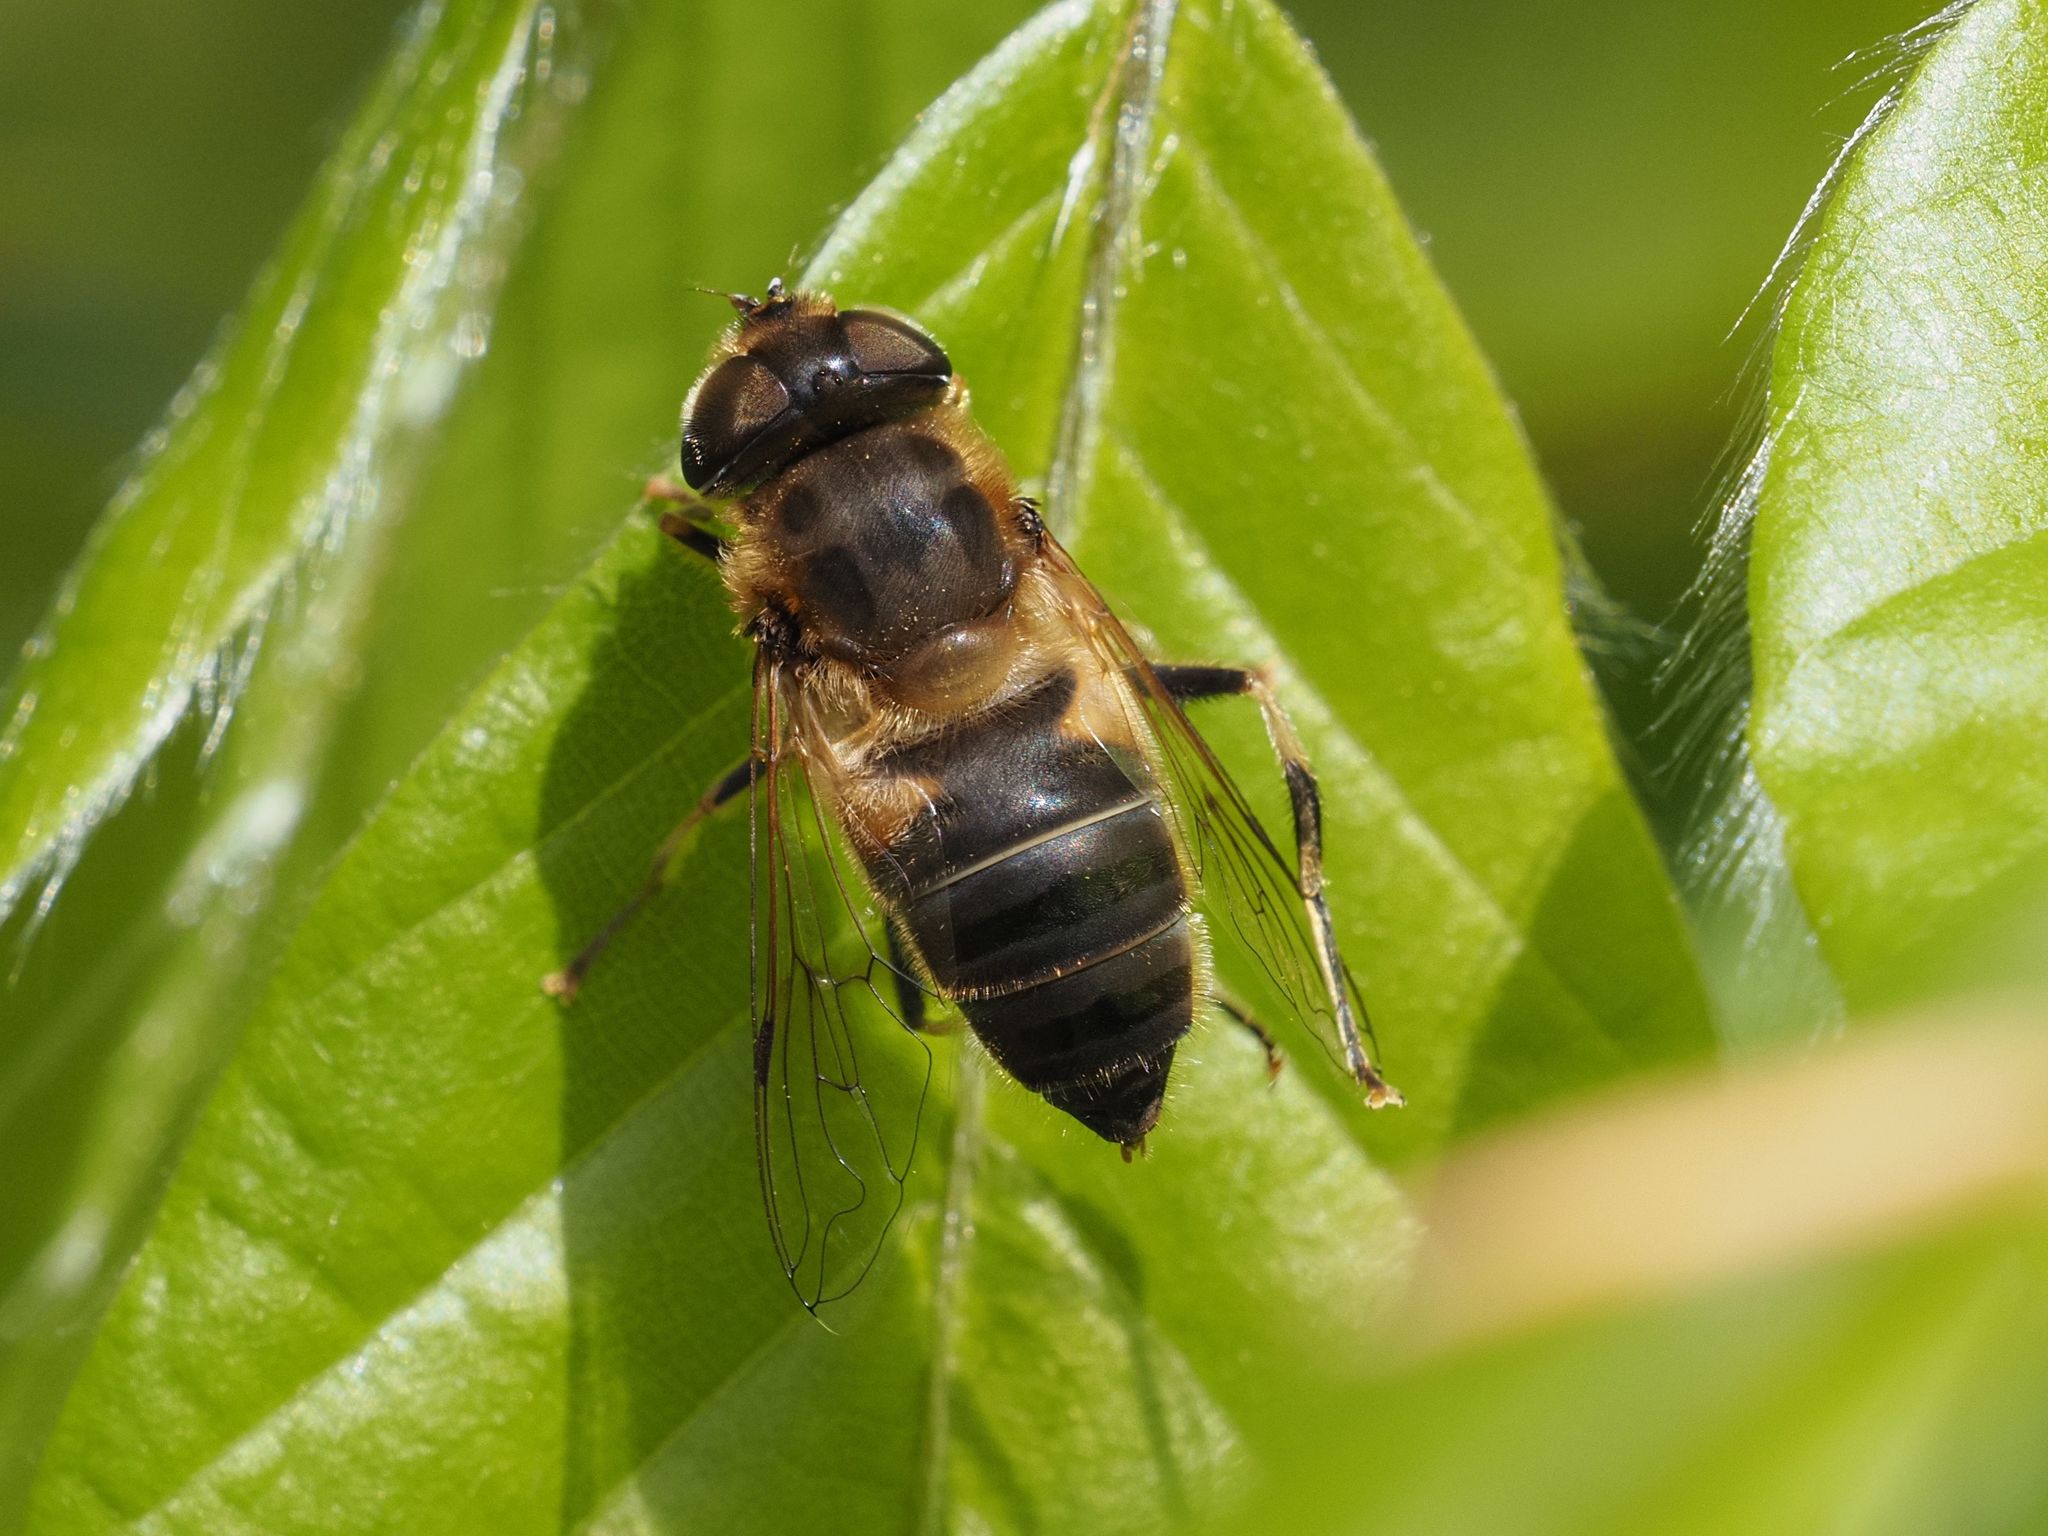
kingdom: Animalia
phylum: Arthropoda
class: Insecta
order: Diptera
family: Syrphidae
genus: Eristalis
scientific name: Eristalis pertinax
